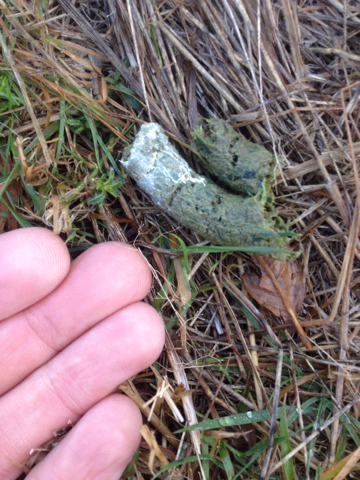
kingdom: Animalia
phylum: Chordata
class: Aves
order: Gruiformes
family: Rallidae
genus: Porphyrio
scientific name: Porphyrio hochstetteri
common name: South island takahe
